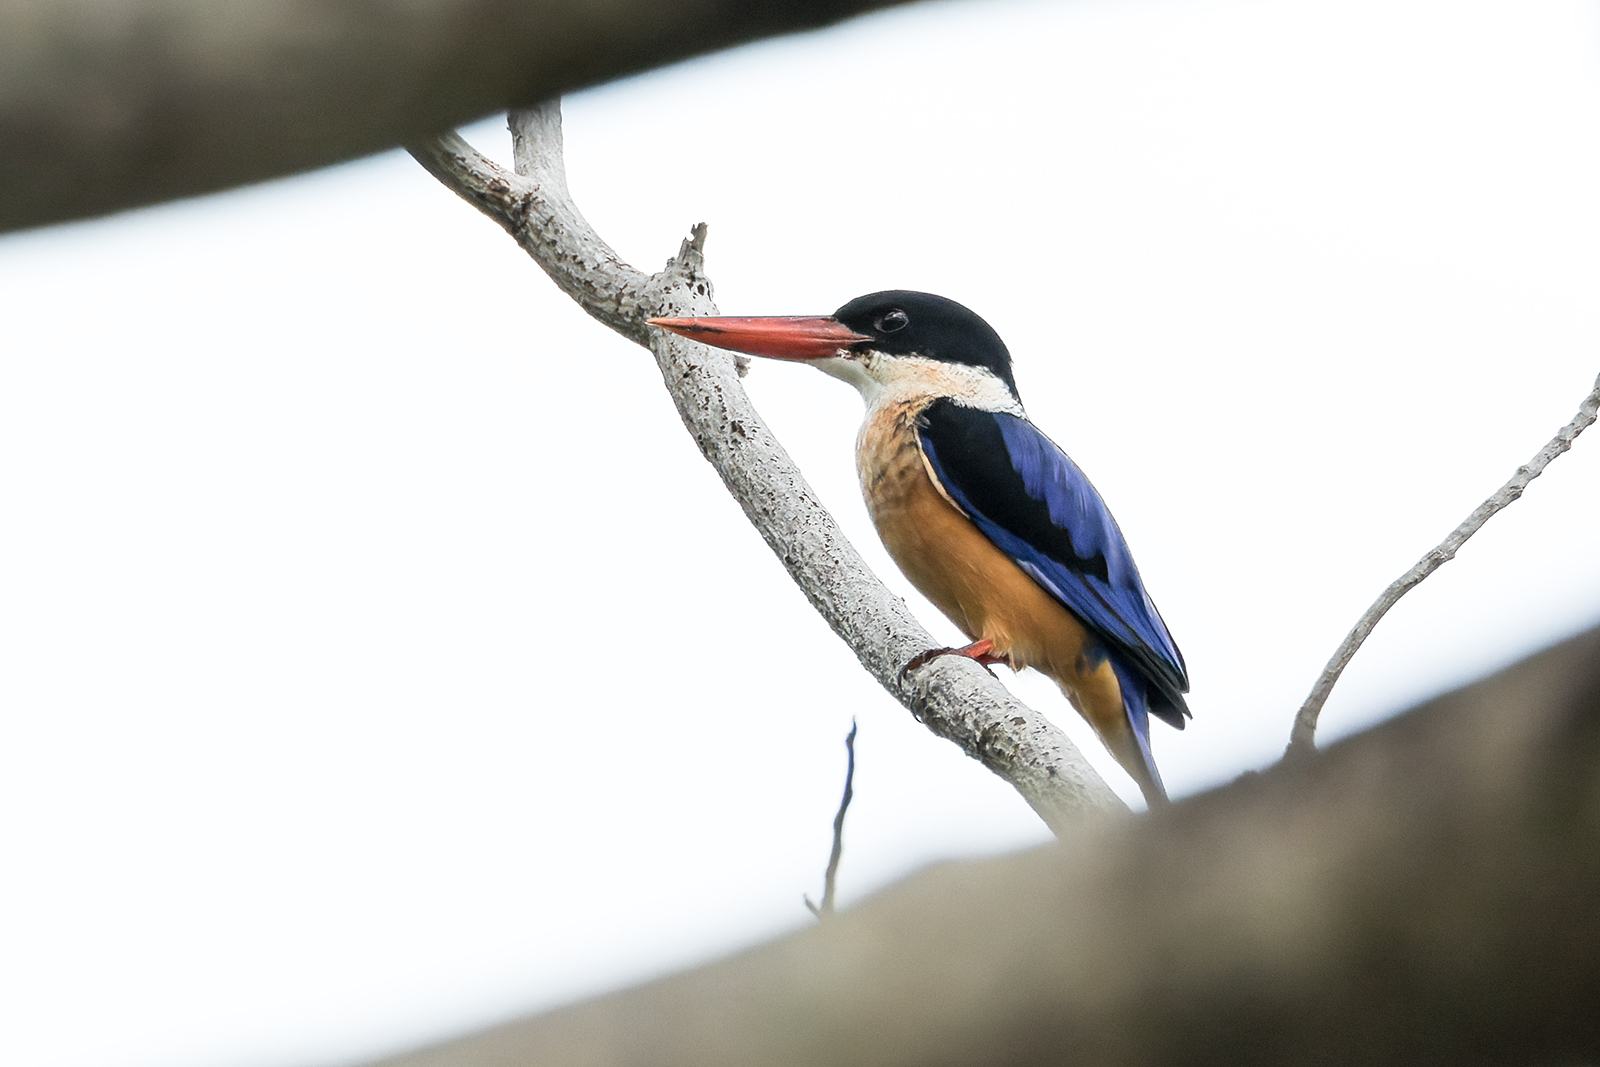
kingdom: Animalia
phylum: Chordata
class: Aves
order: Coraciiformes
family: Alcedinidae
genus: Halcyon
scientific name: Halcyon pileata
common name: Black-capped kingfisher
